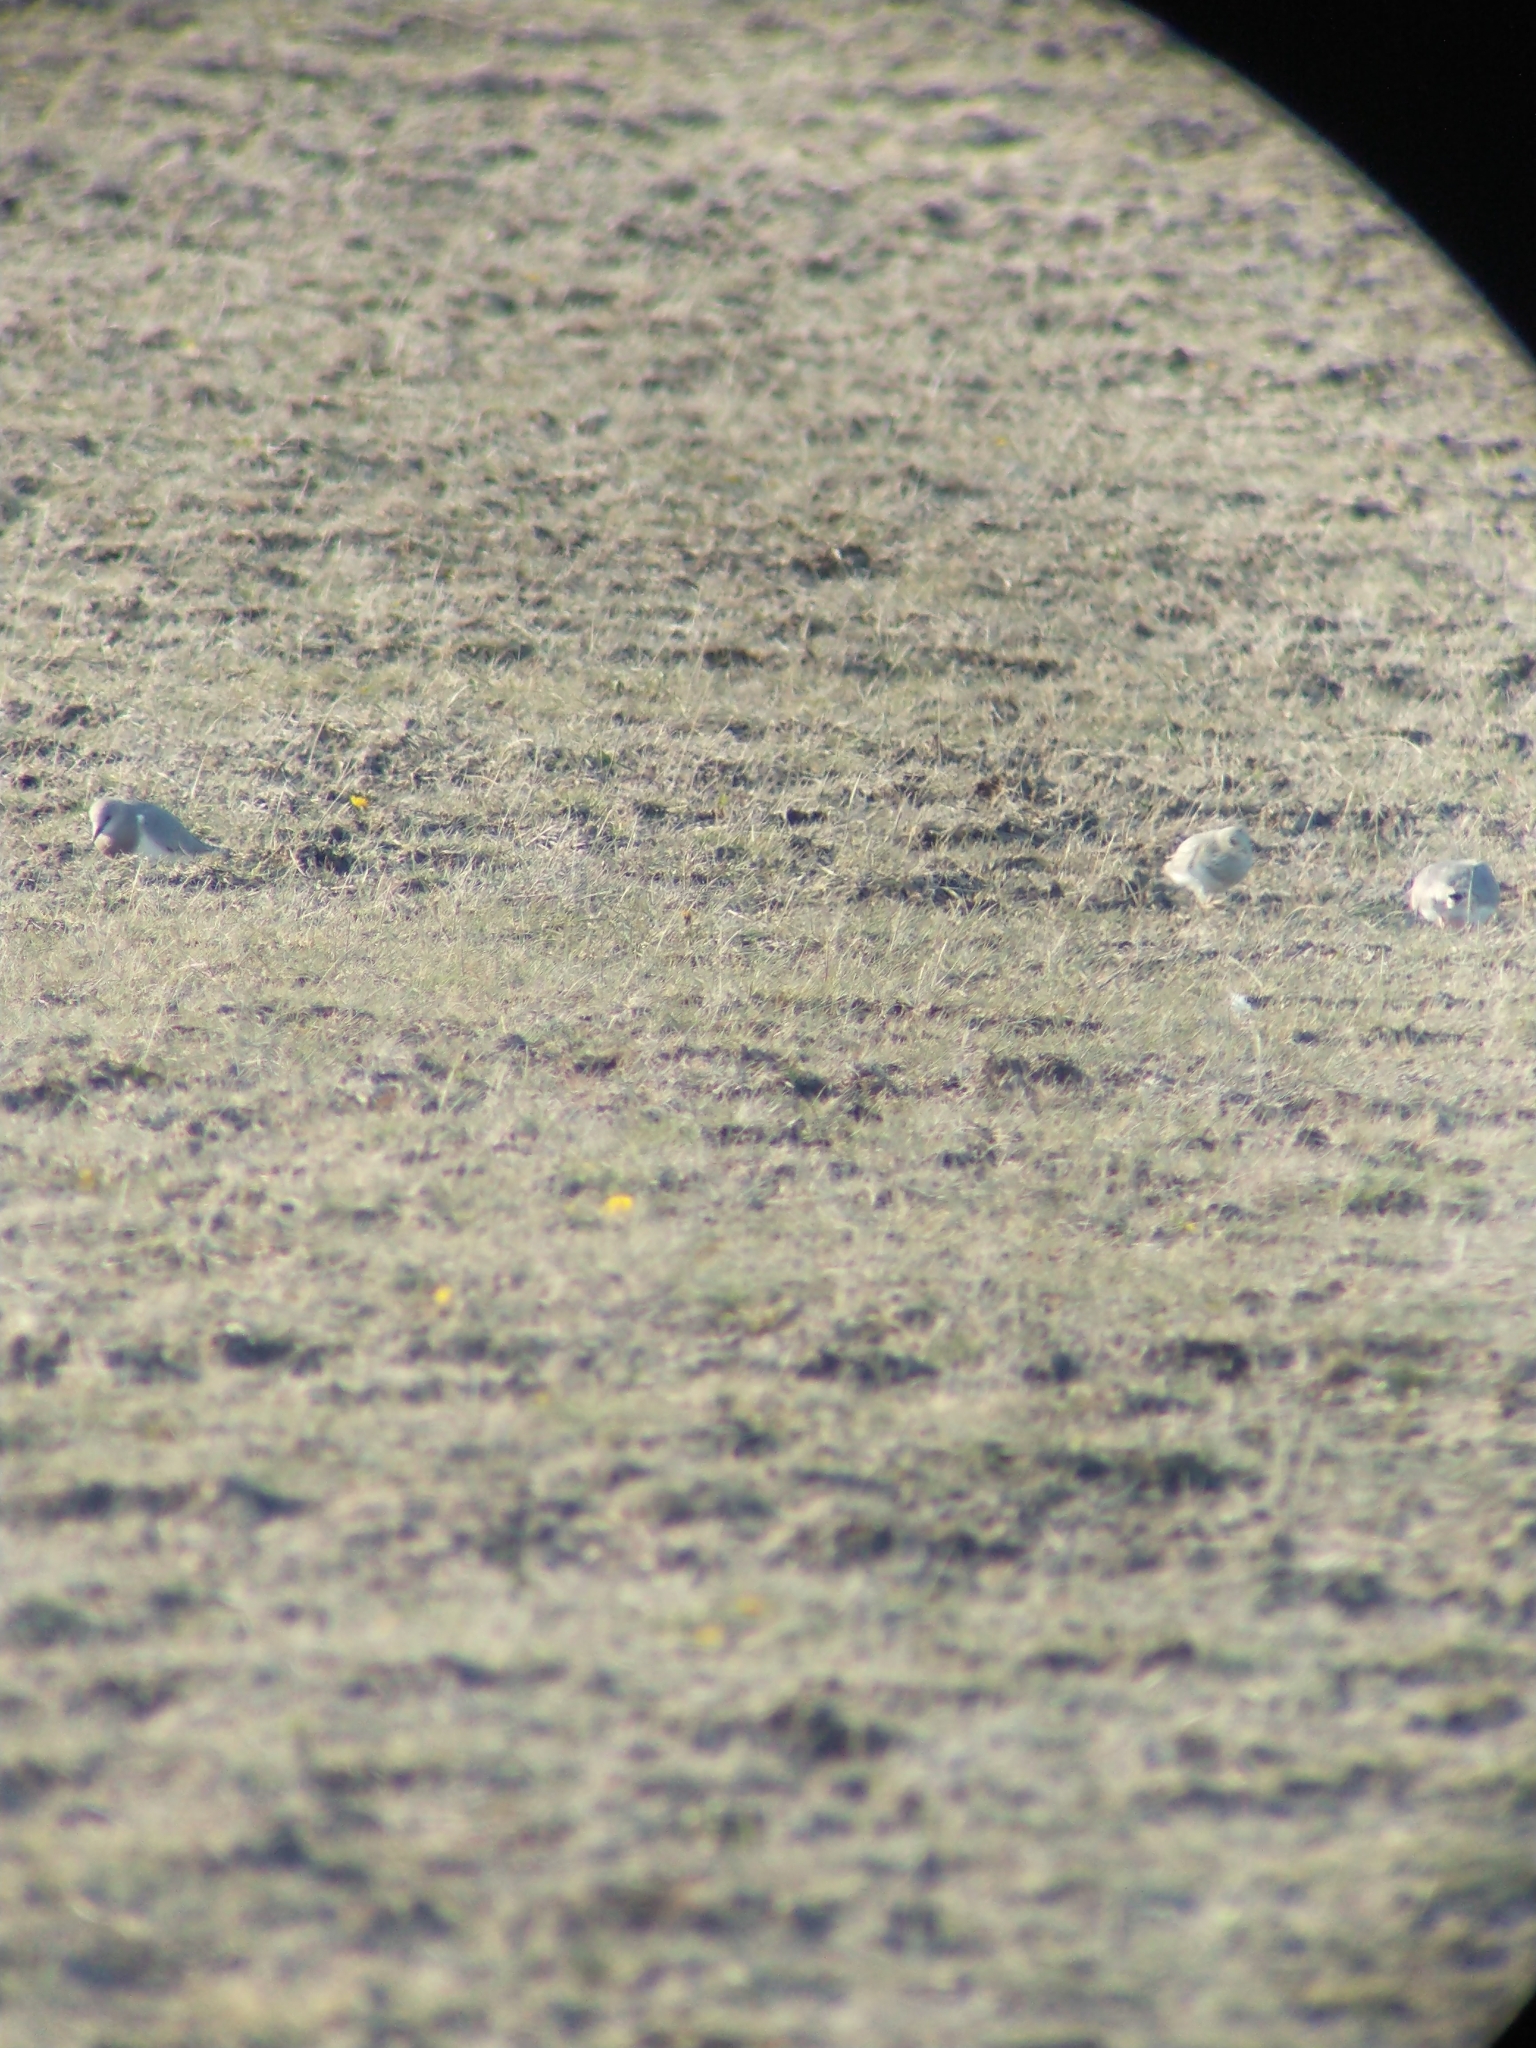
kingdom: Animalia
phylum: Chordata
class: Aves
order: Charadriiformes
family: Pluvianellidae
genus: Pluvianellus
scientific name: Pluvianellus socialis
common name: Magellanic plover
